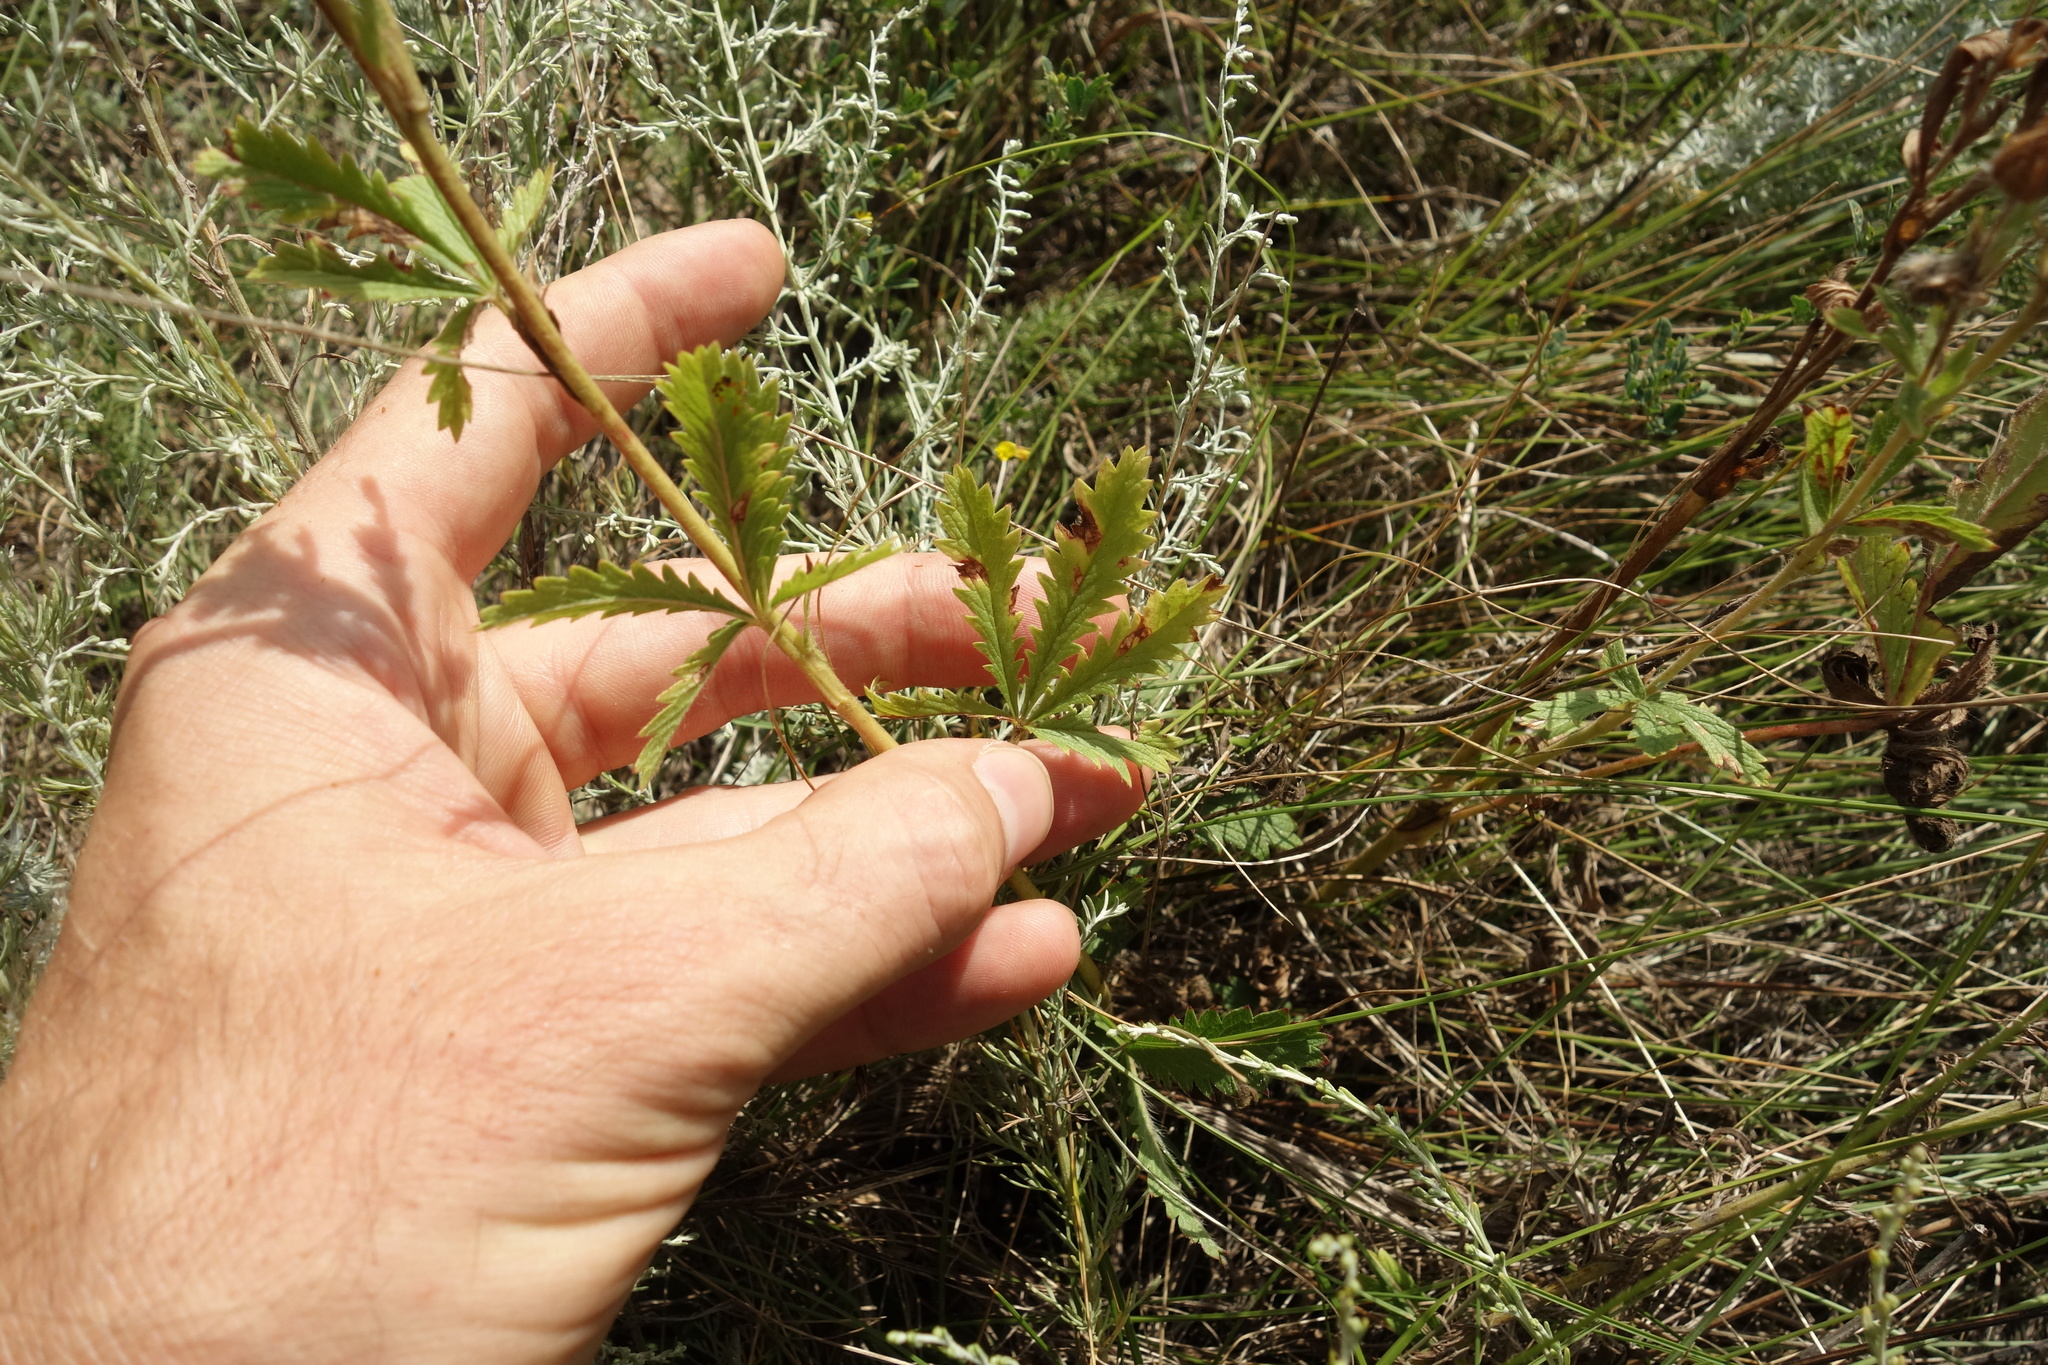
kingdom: Plantae
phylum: Tracheophyta
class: Magnoliopsida
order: Rosales
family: Rosaceae
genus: Potentilla
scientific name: Potentilla recta
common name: Sulphur cinquefoil
